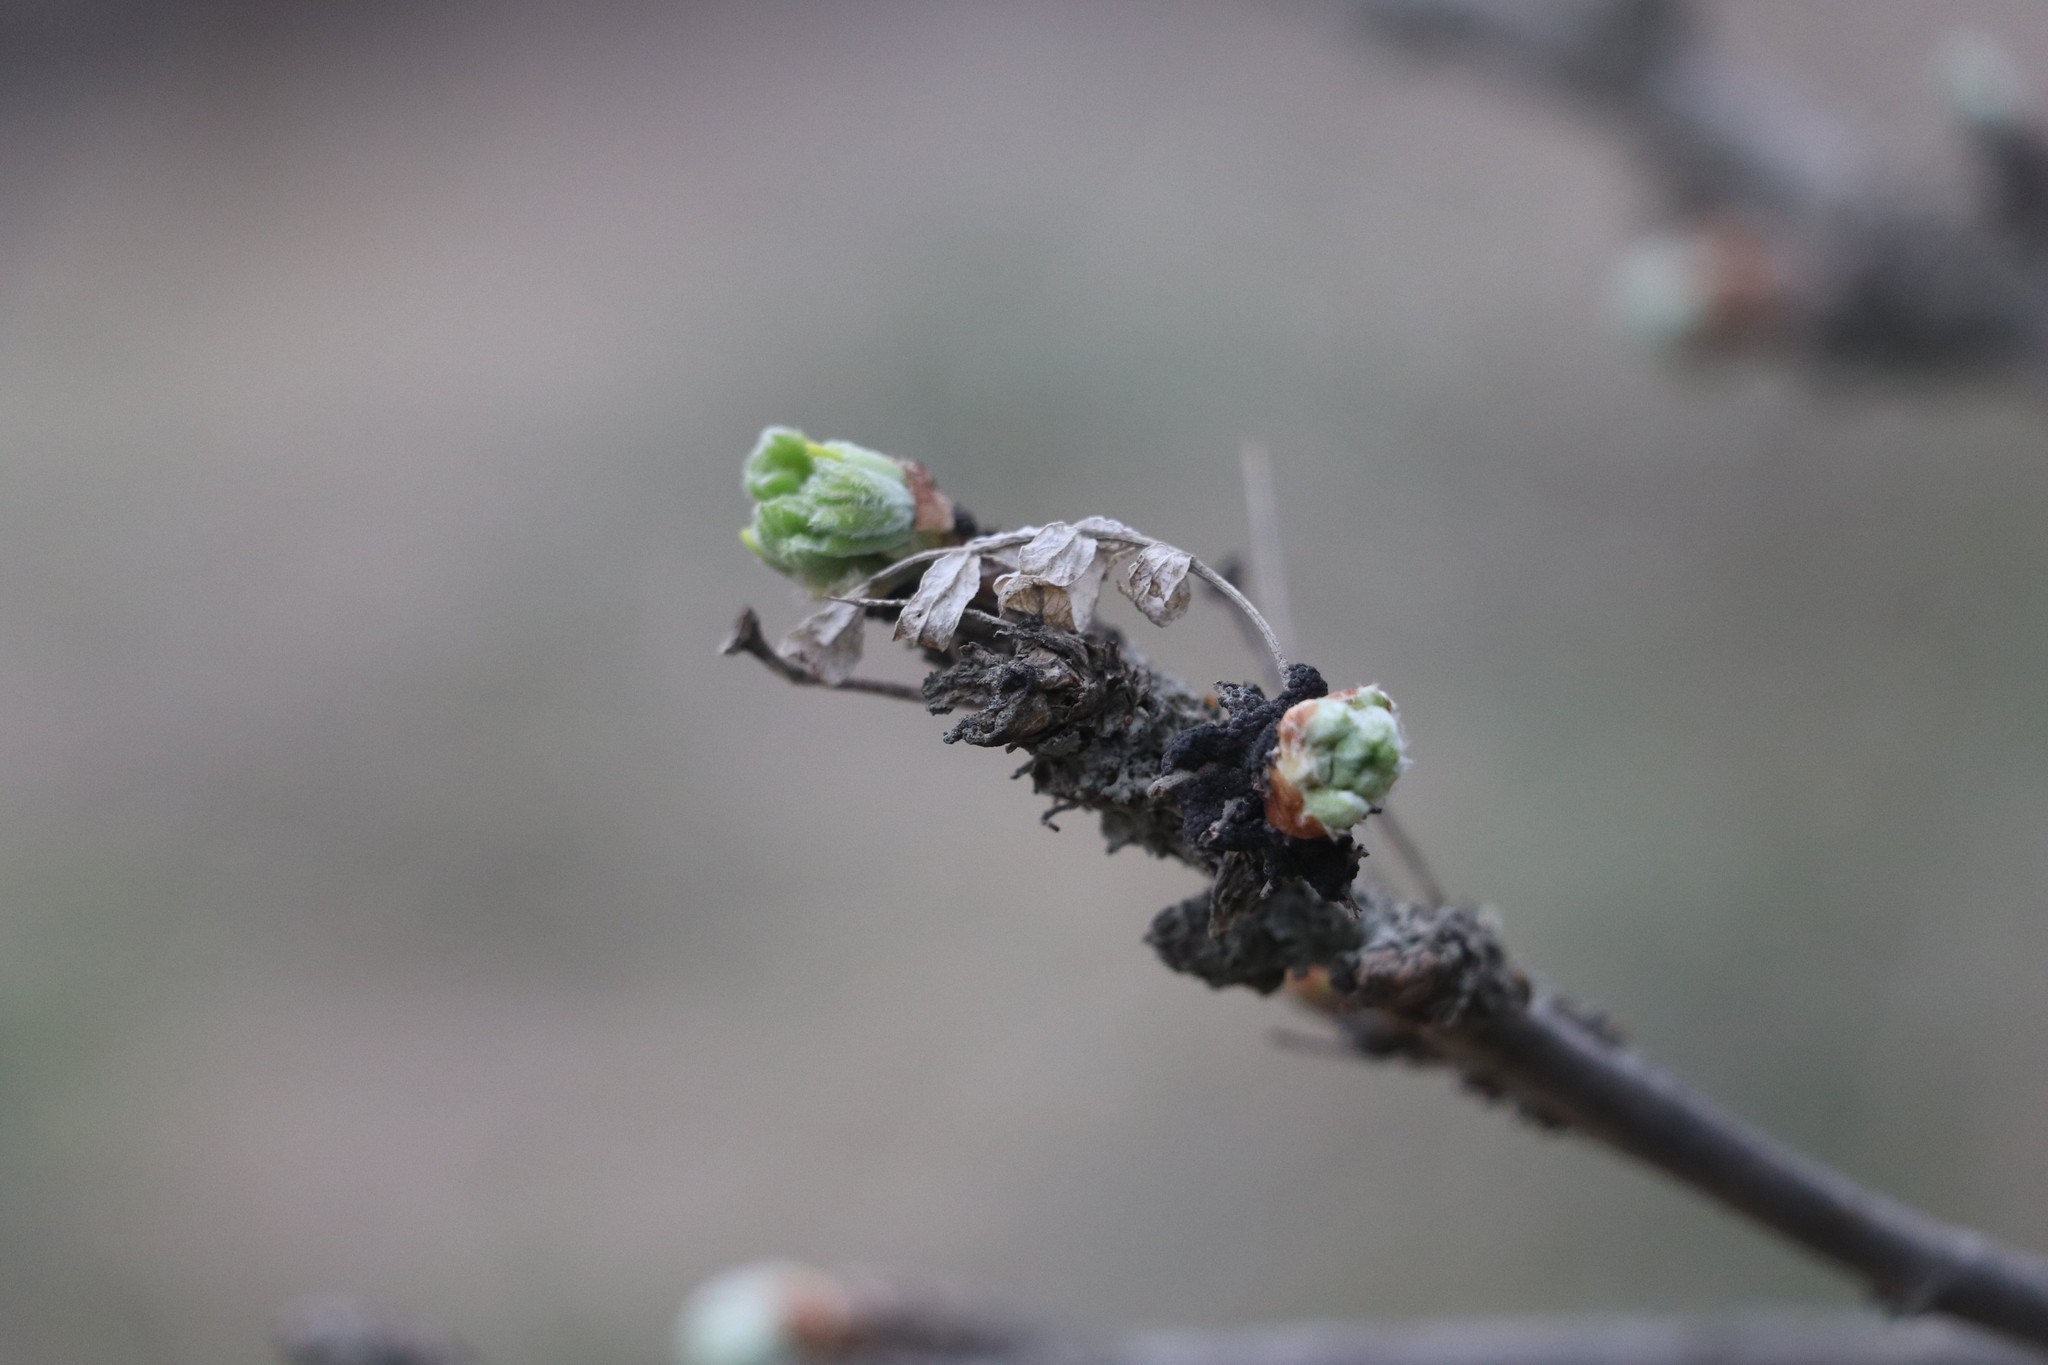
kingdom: Plantae
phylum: Tracheophyta
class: Magnoliopsida
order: Fabales
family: Fabaceae
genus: Caragana
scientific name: Caragana arborescens
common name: Siberian peashrub
